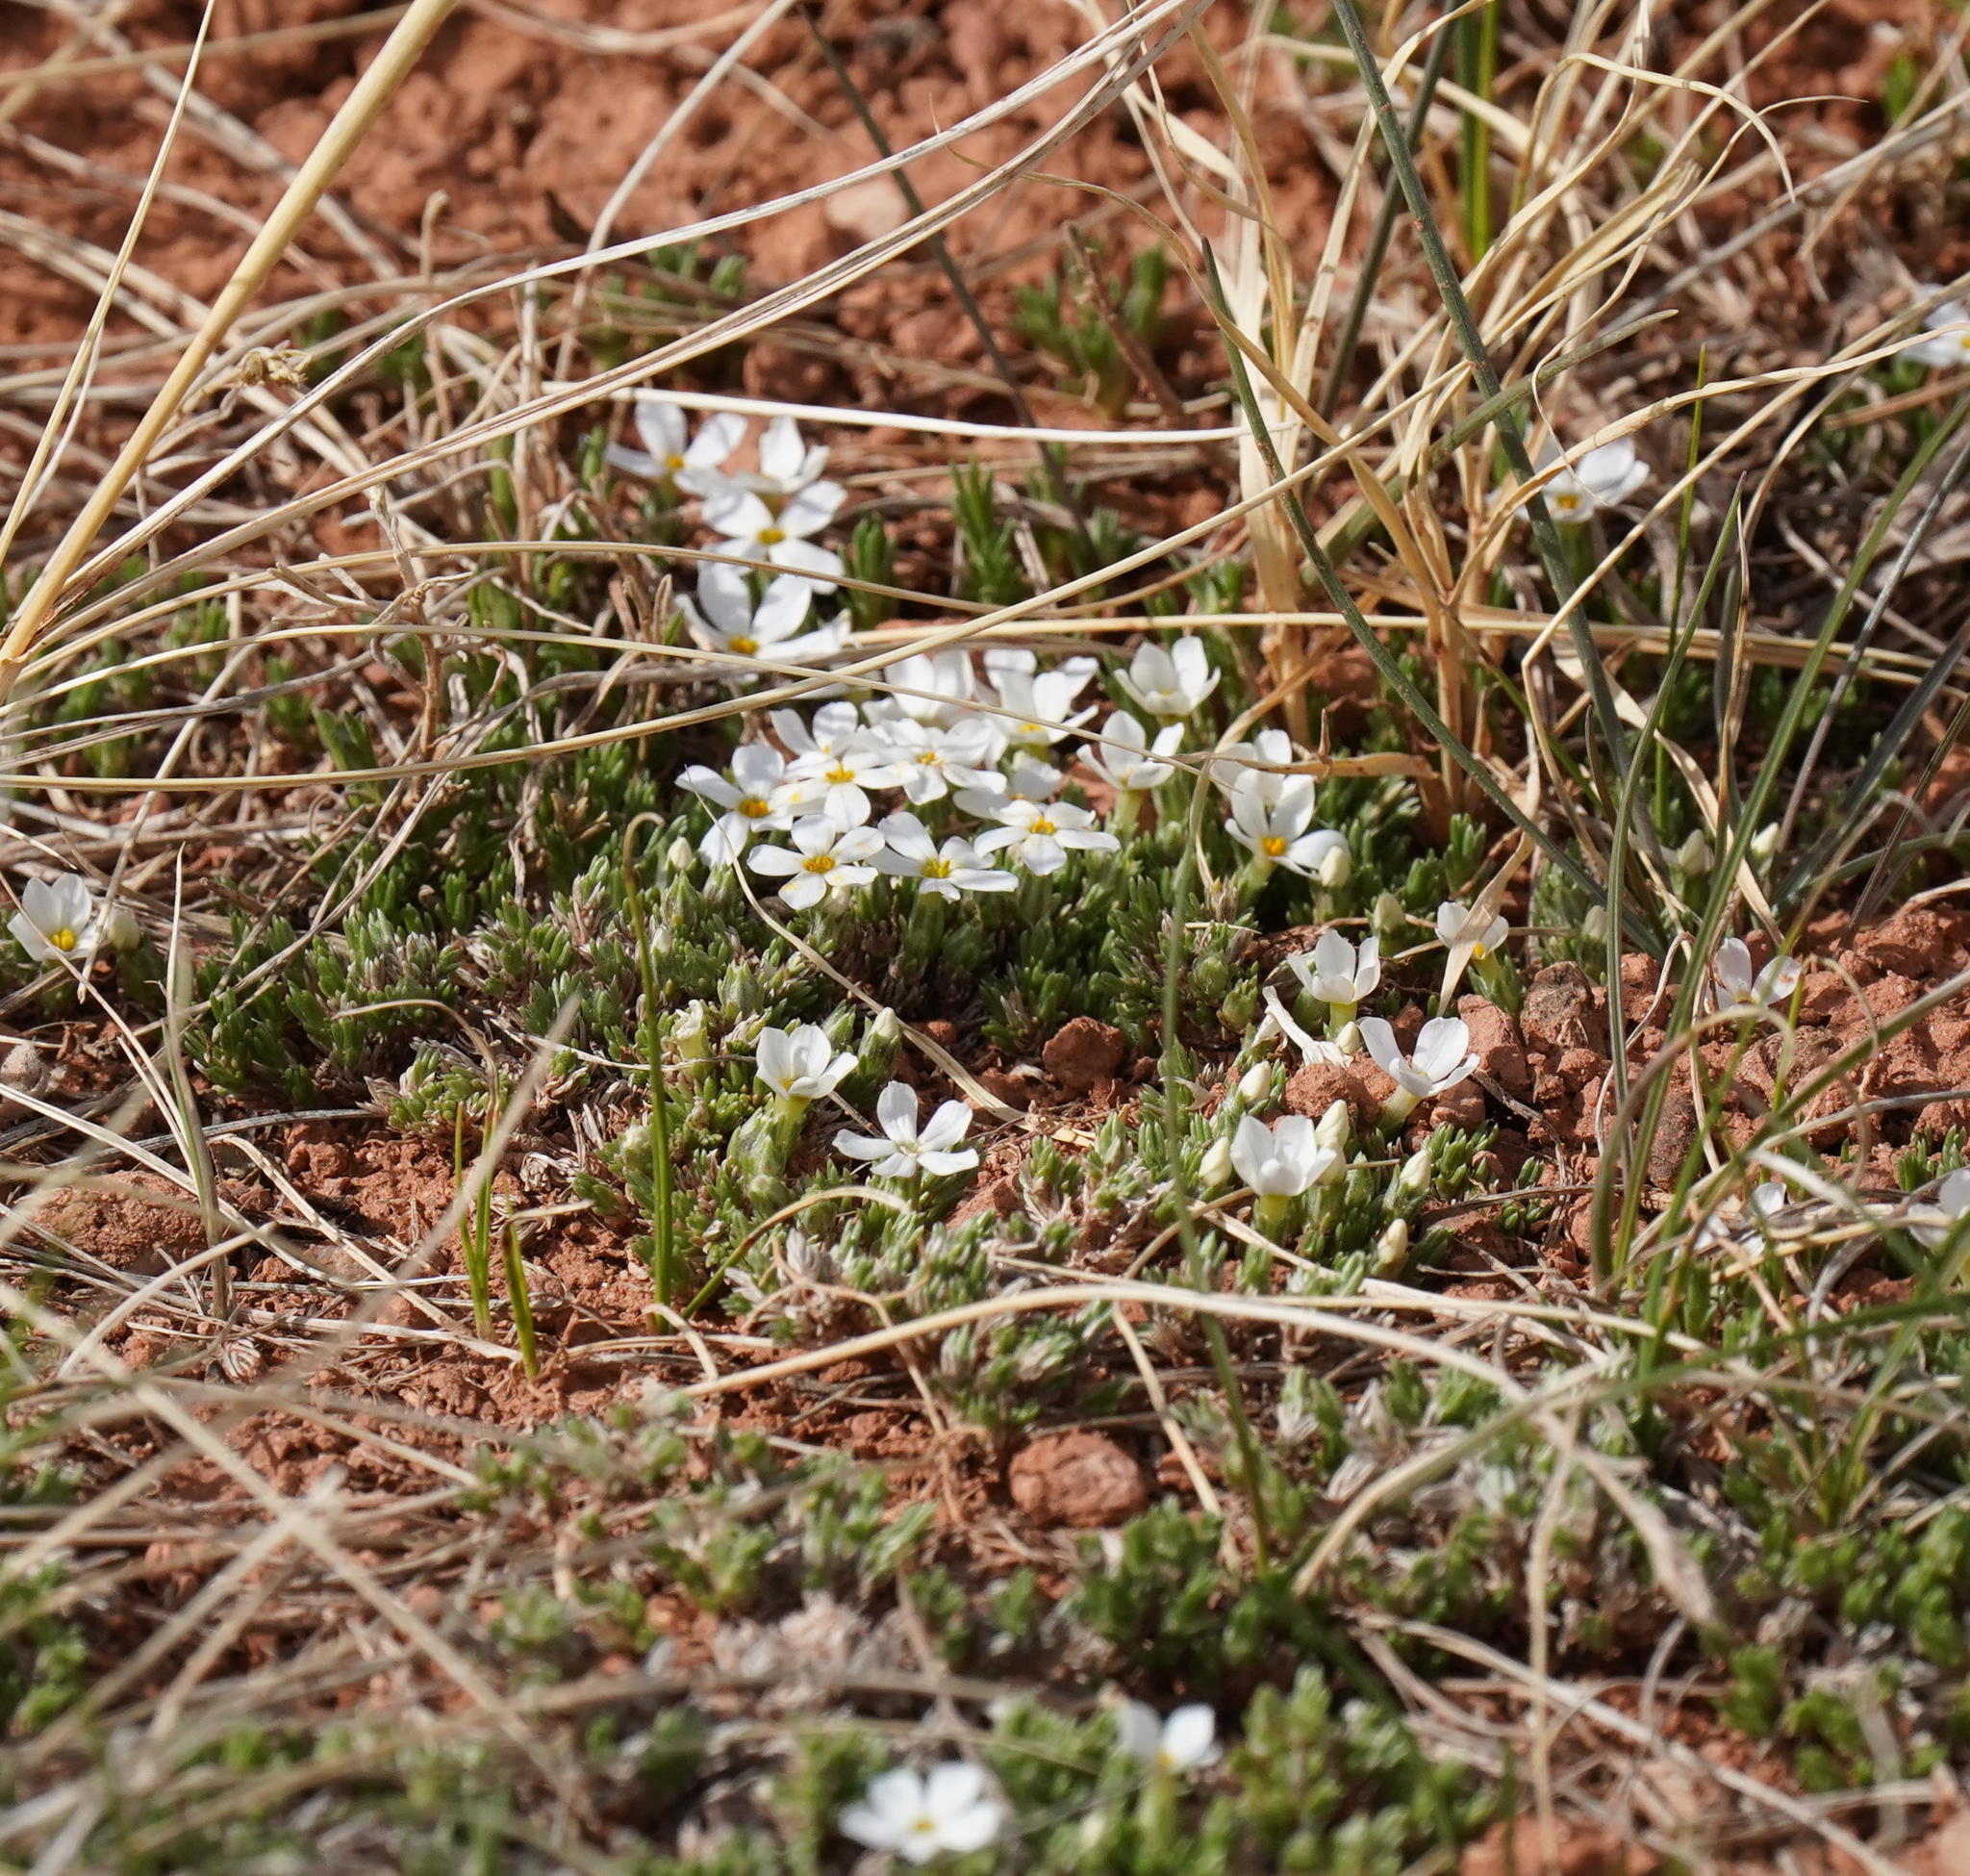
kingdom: Plantae
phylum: Tracheophyta
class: Magnoliopsida
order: Ericales
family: Polemoniaceae
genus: Phlox
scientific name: Phlox hoodii
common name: Moss phlox
